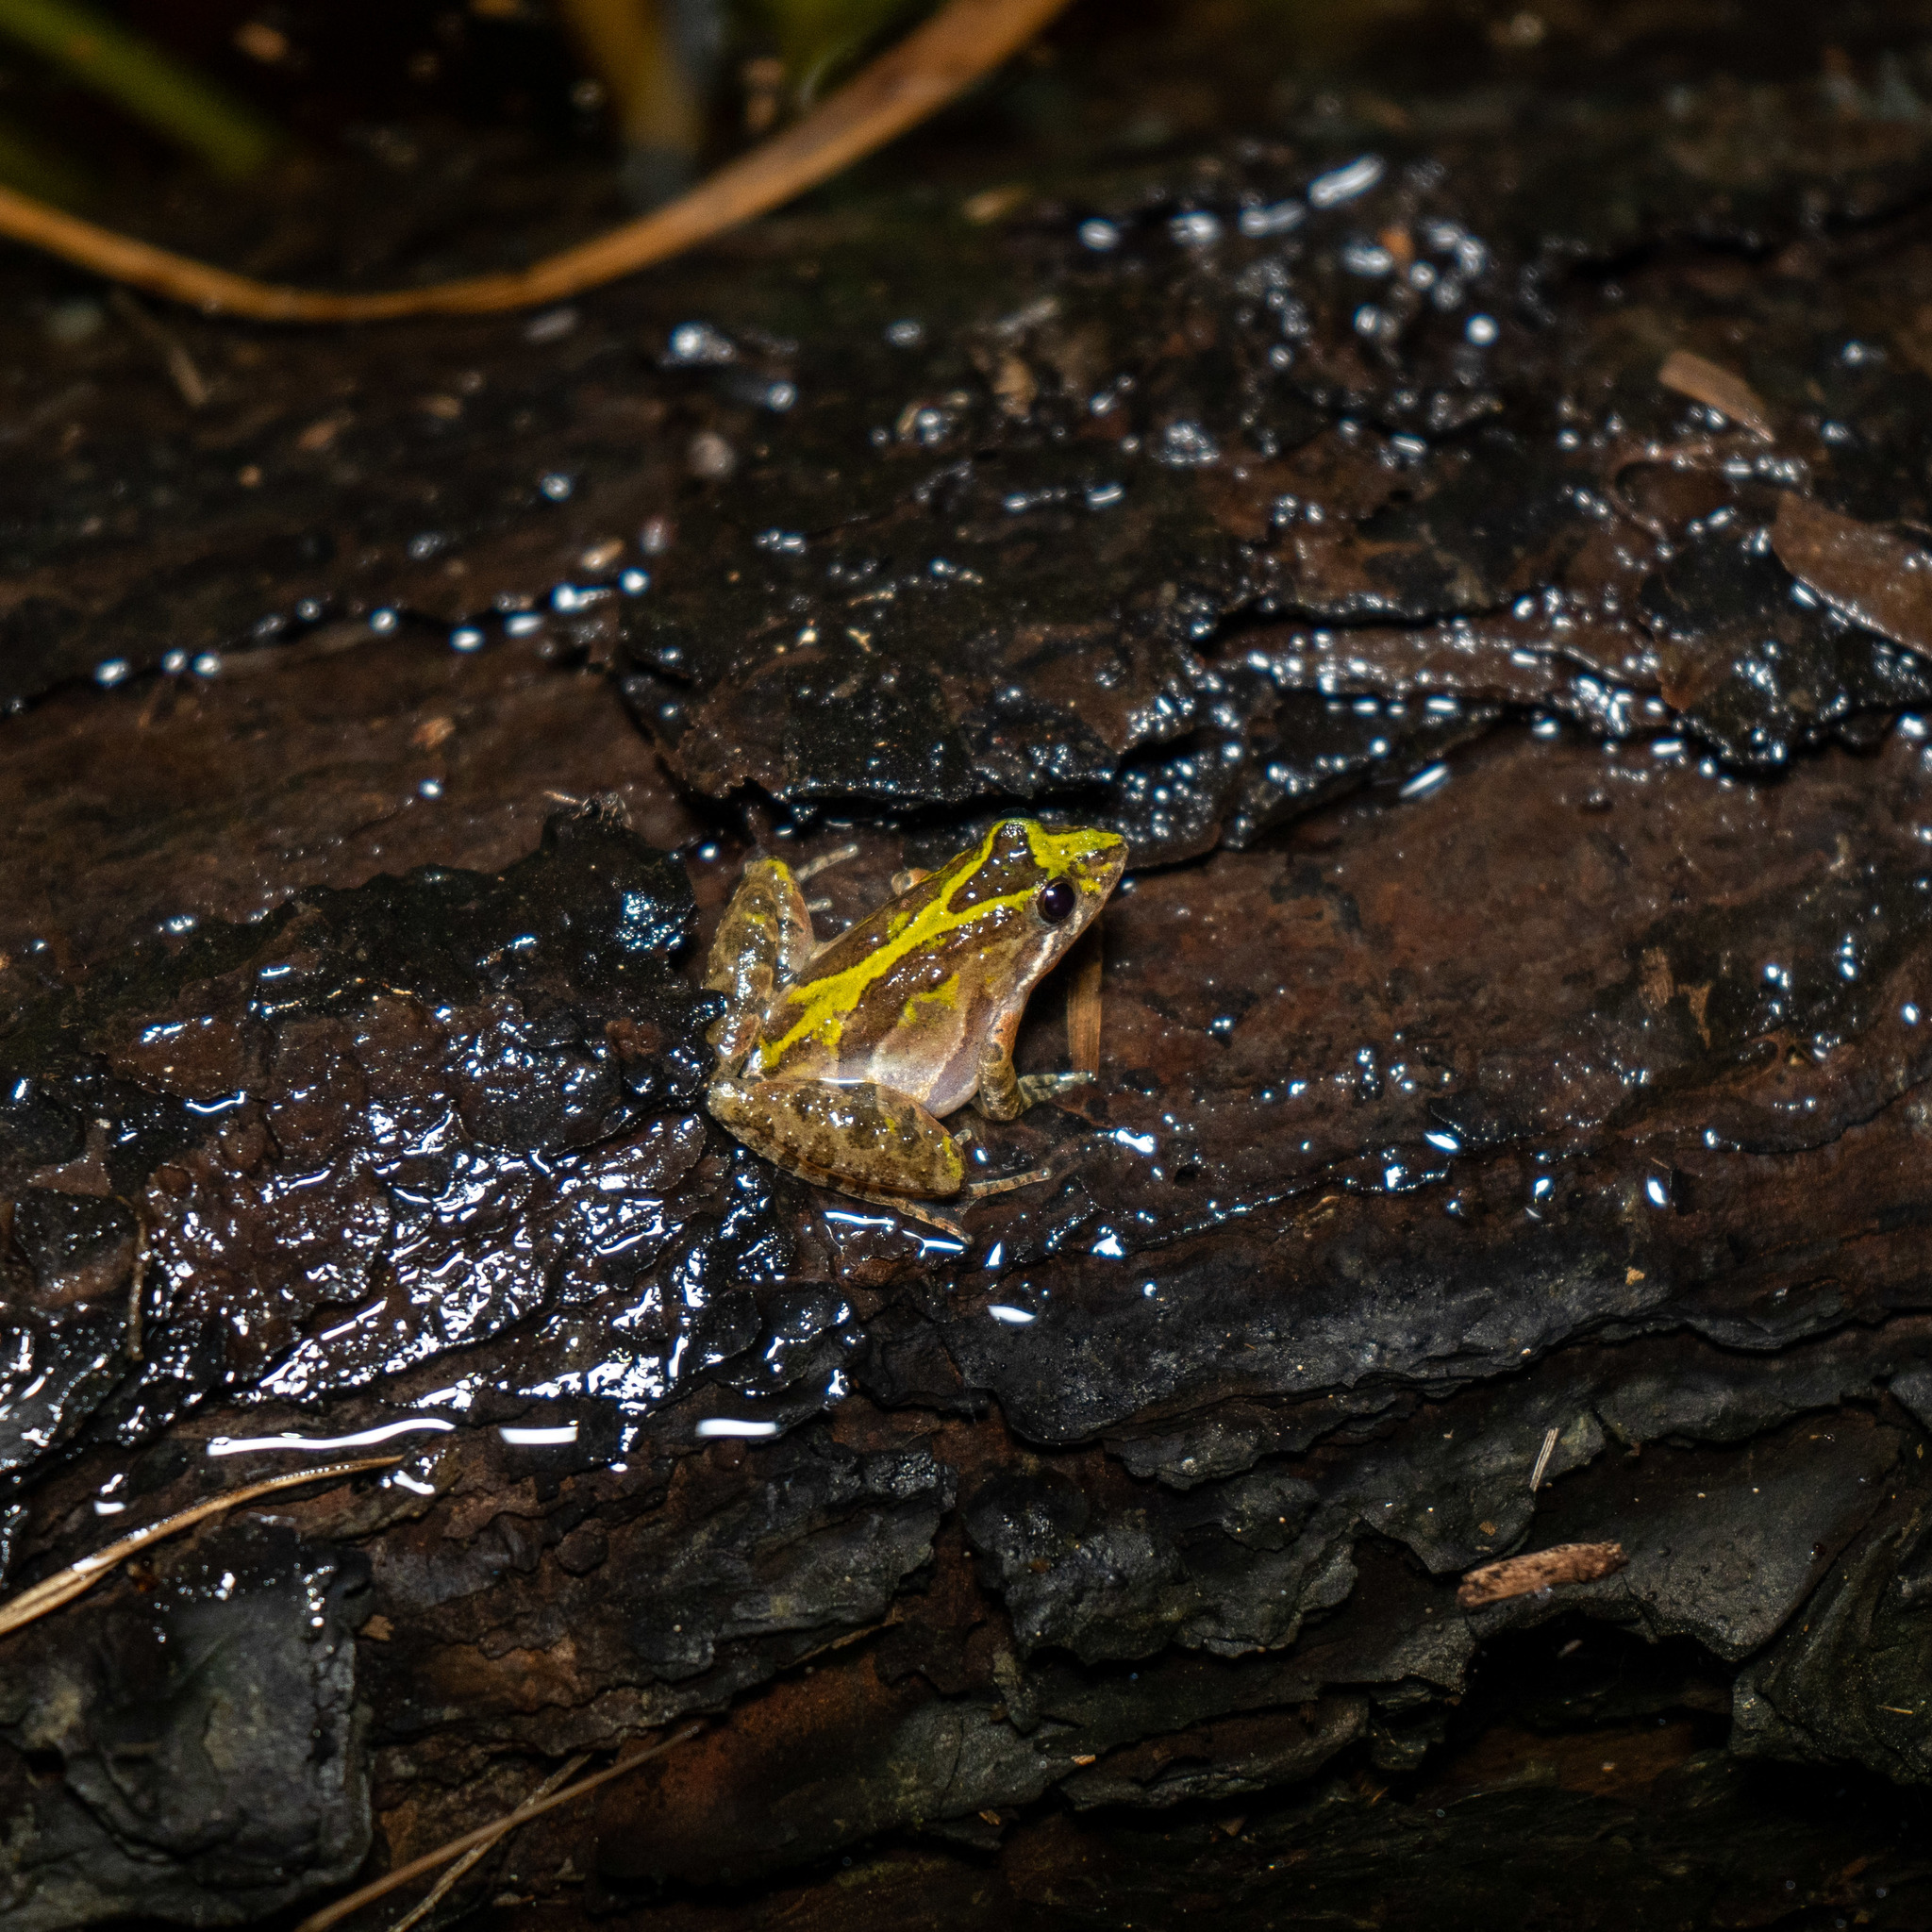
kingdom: Animalia
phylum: Chordata
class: Amphibia
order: Anura
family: Hylidae
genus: Acris
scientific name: Acris gryllus
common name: Southern cricket frog
